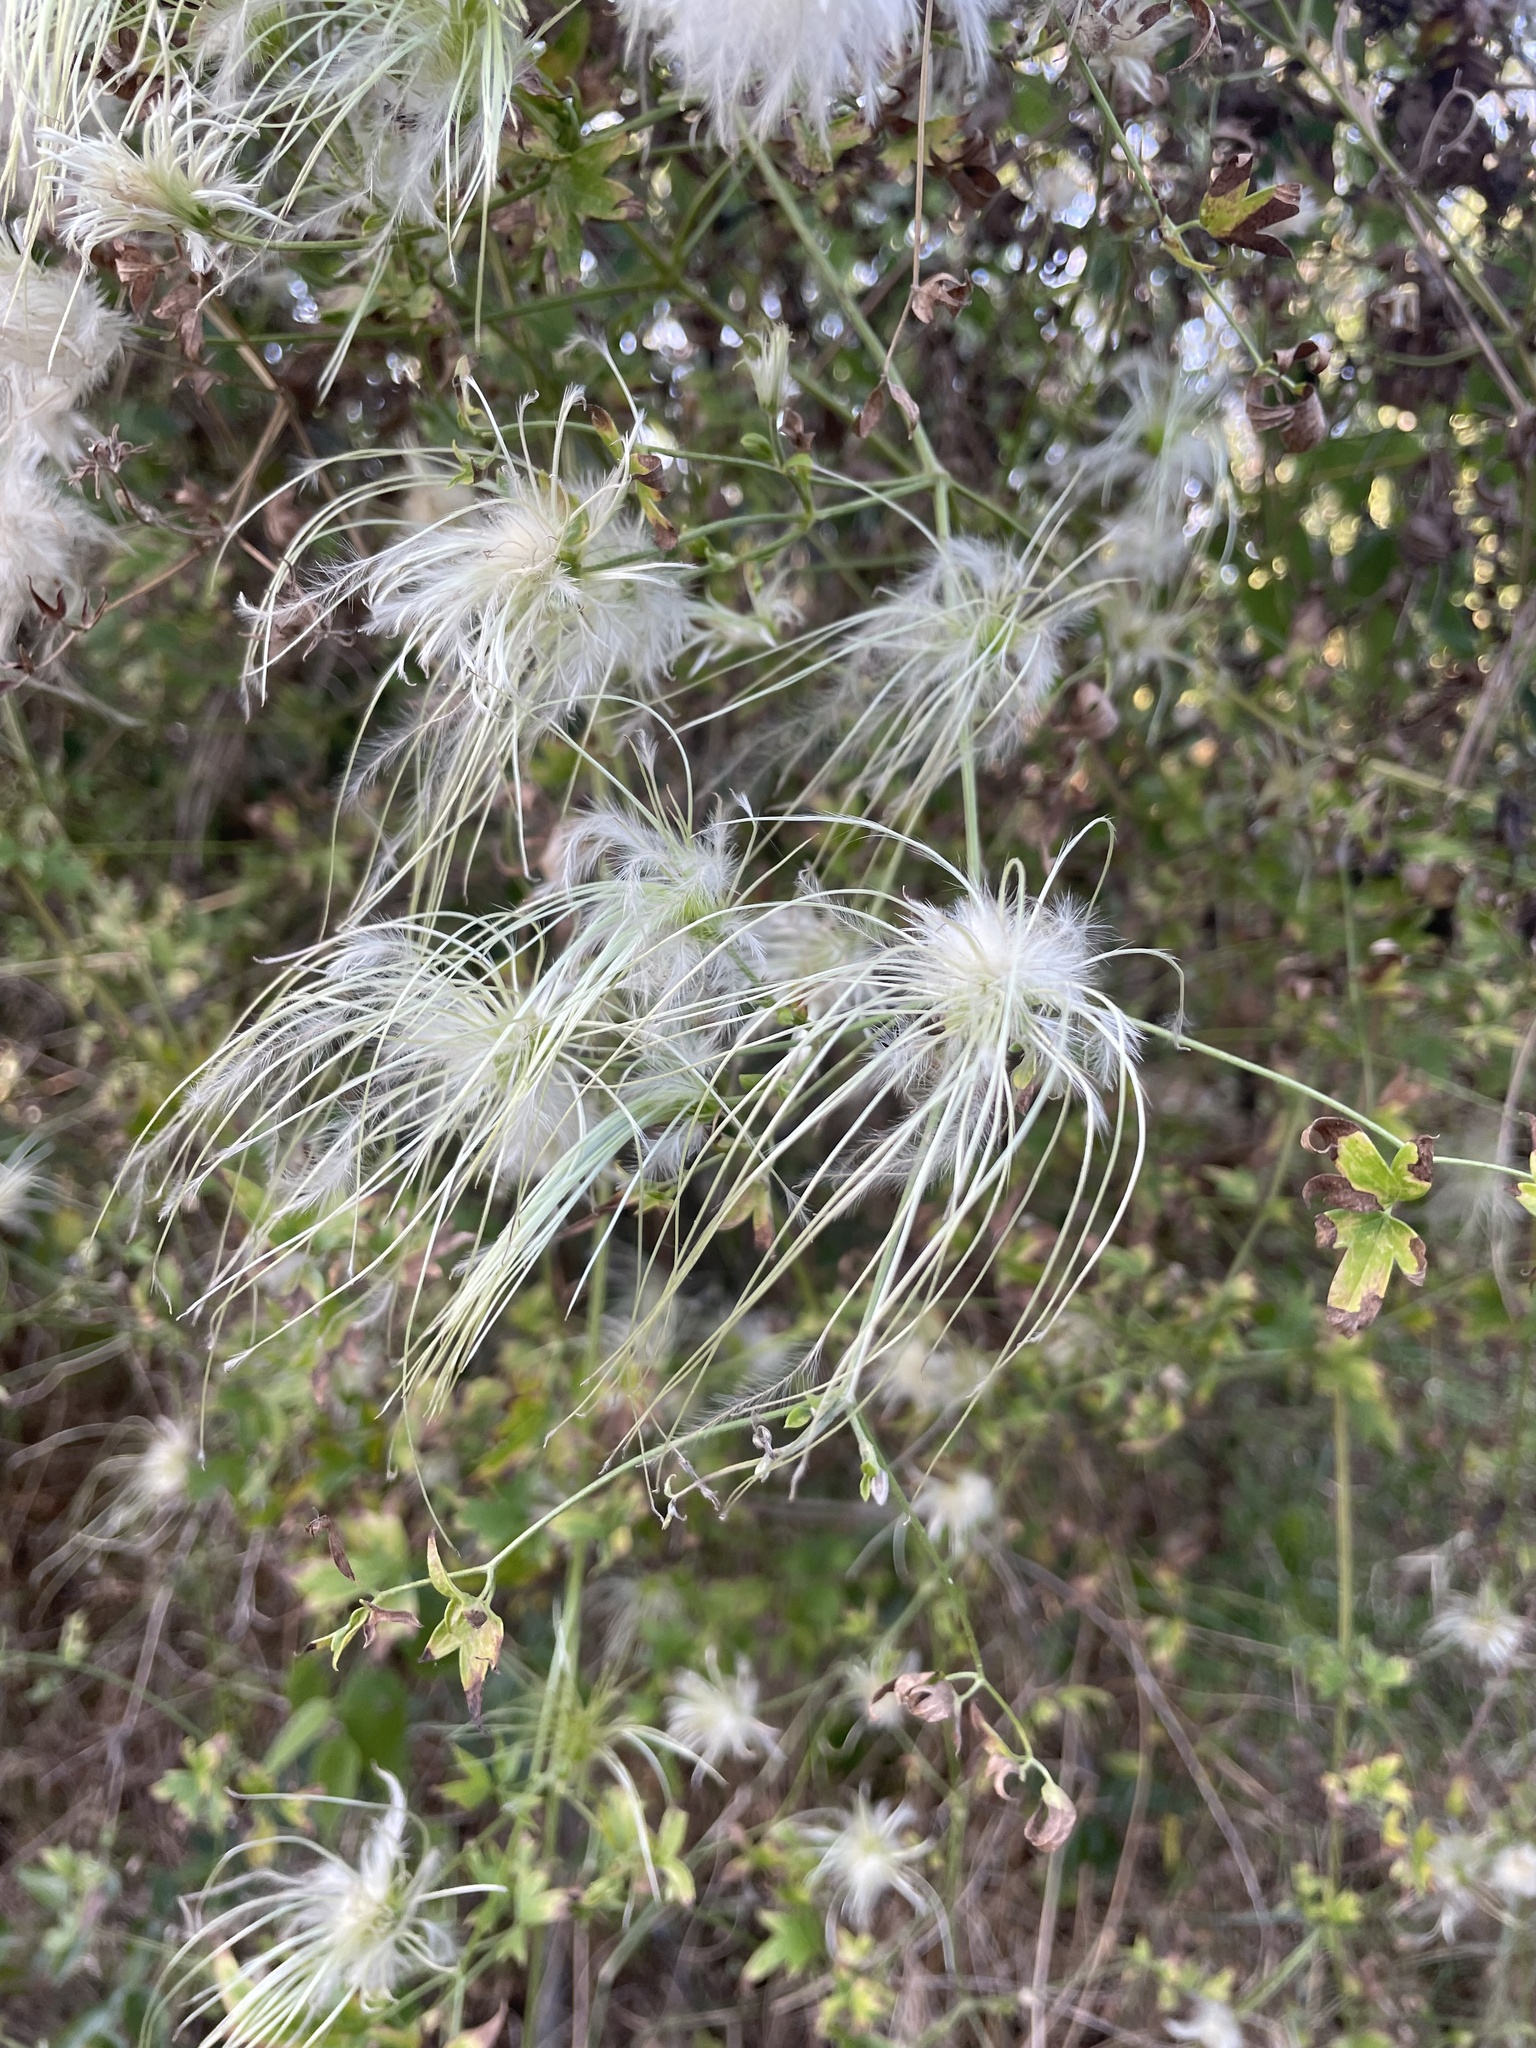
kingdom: Plantae
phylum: Tracheophyta
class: Magnoliopsida
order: Ranunculales
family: Ranunculaceae
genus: Clematis
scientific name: Clematis drummondii
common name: Texas virgin's bower
